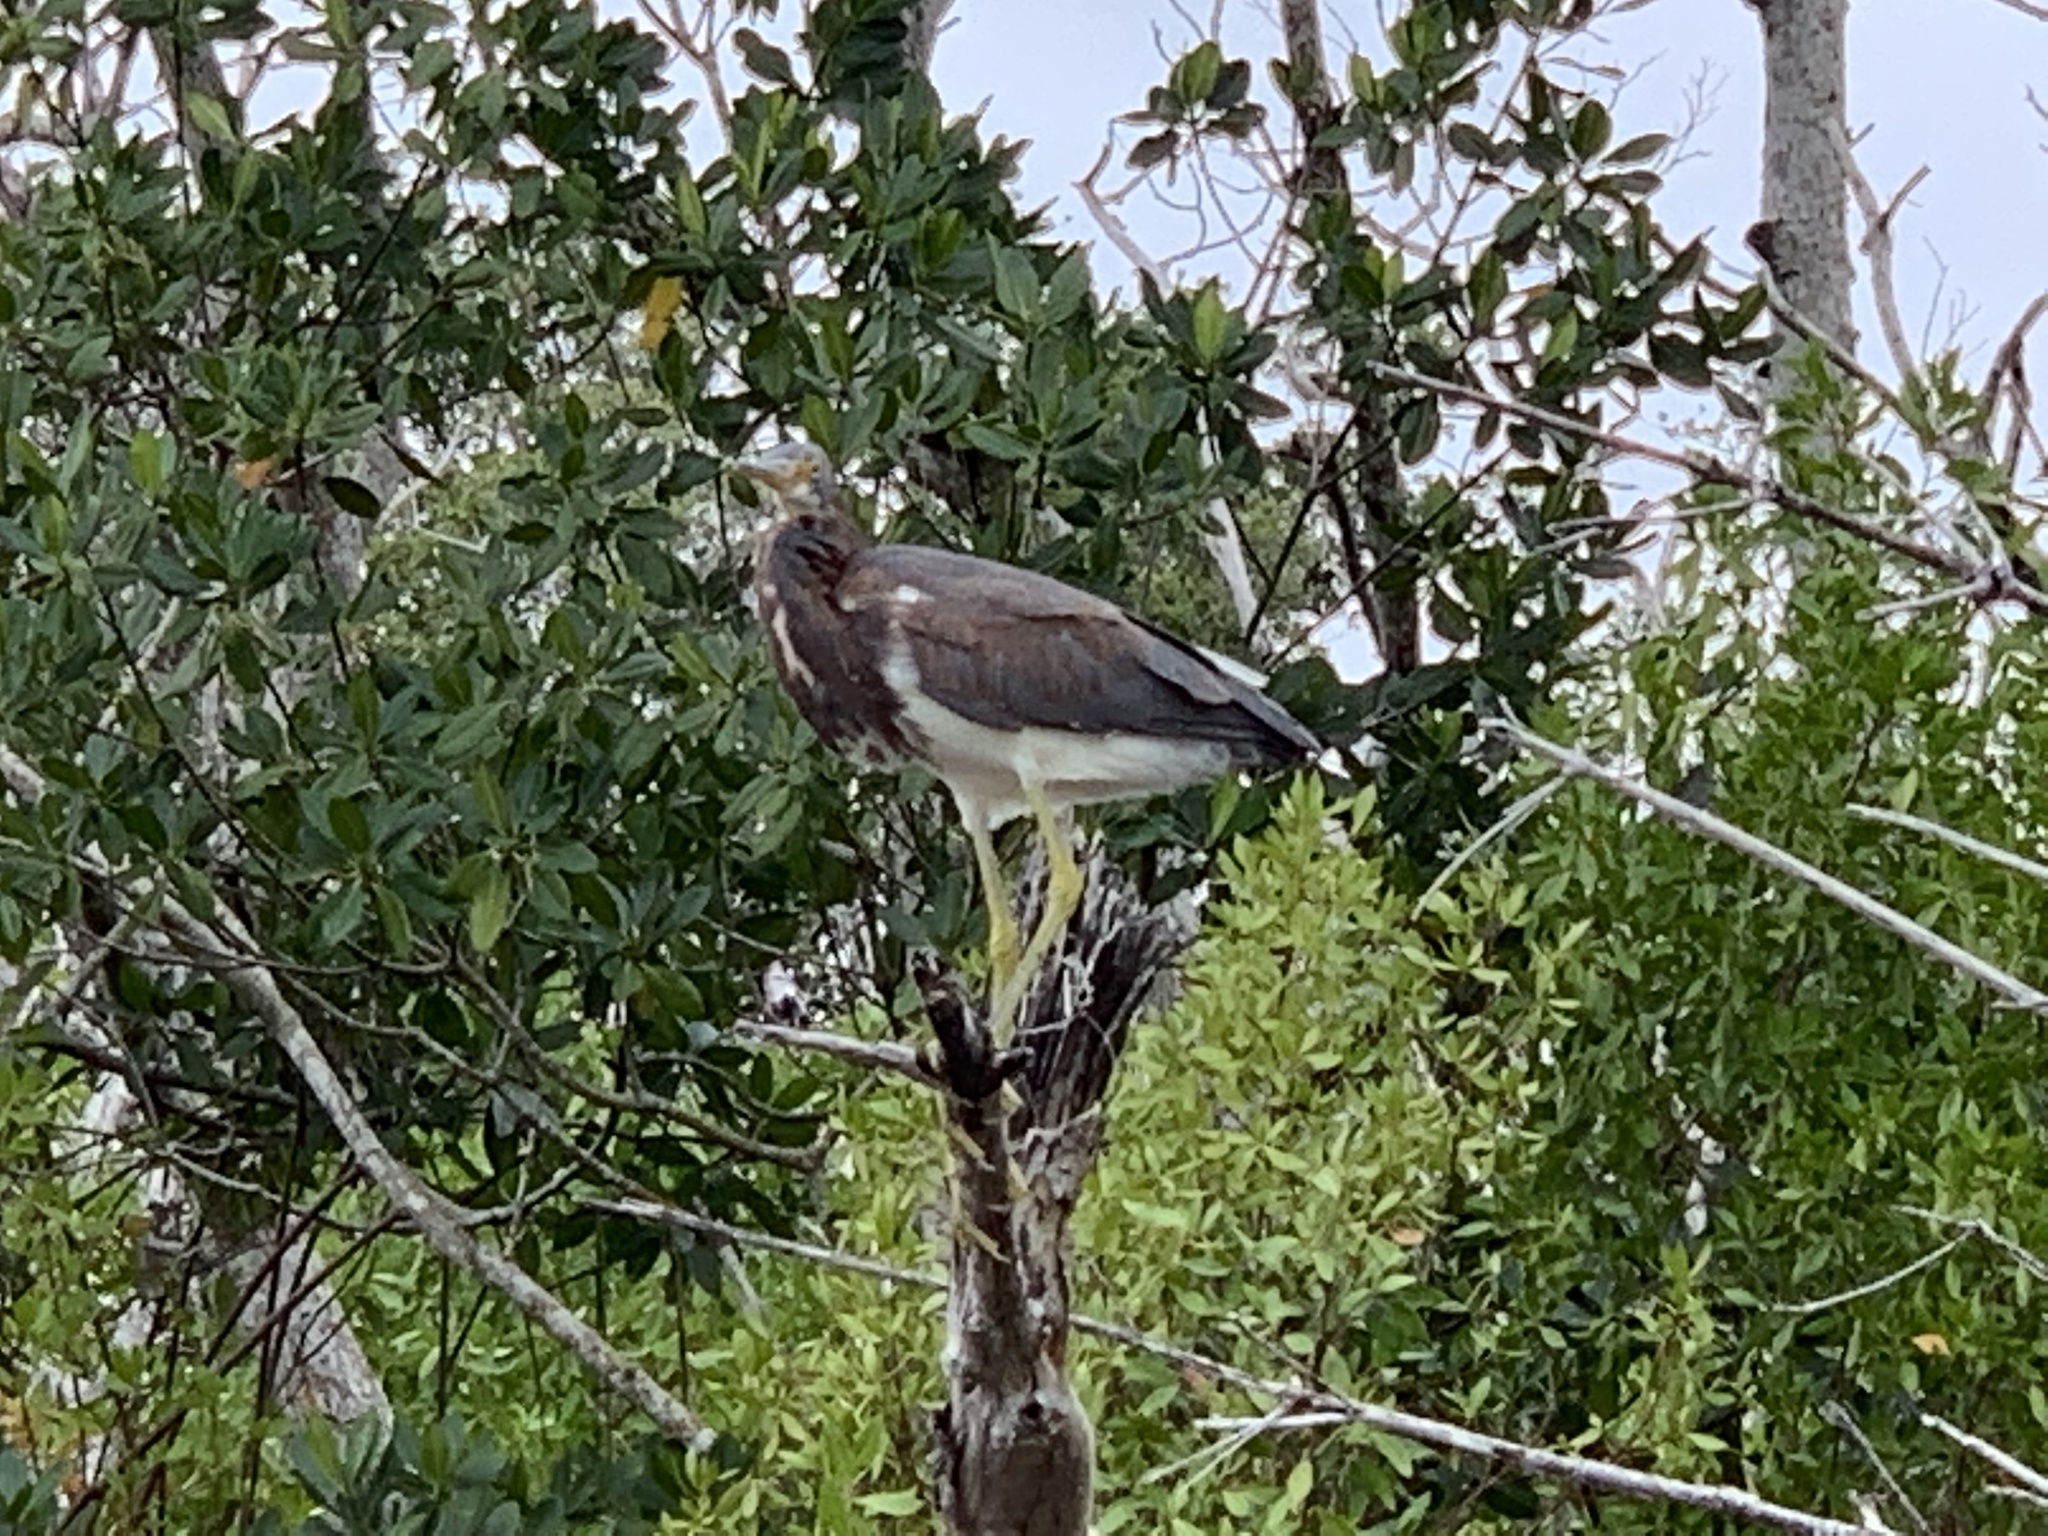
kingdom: Animalia
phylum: Chordata
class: Aves
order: Pelecaniformes
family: Ardeidae
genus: Egretta
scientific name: Egretta tricolor
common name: Tricolored heron
